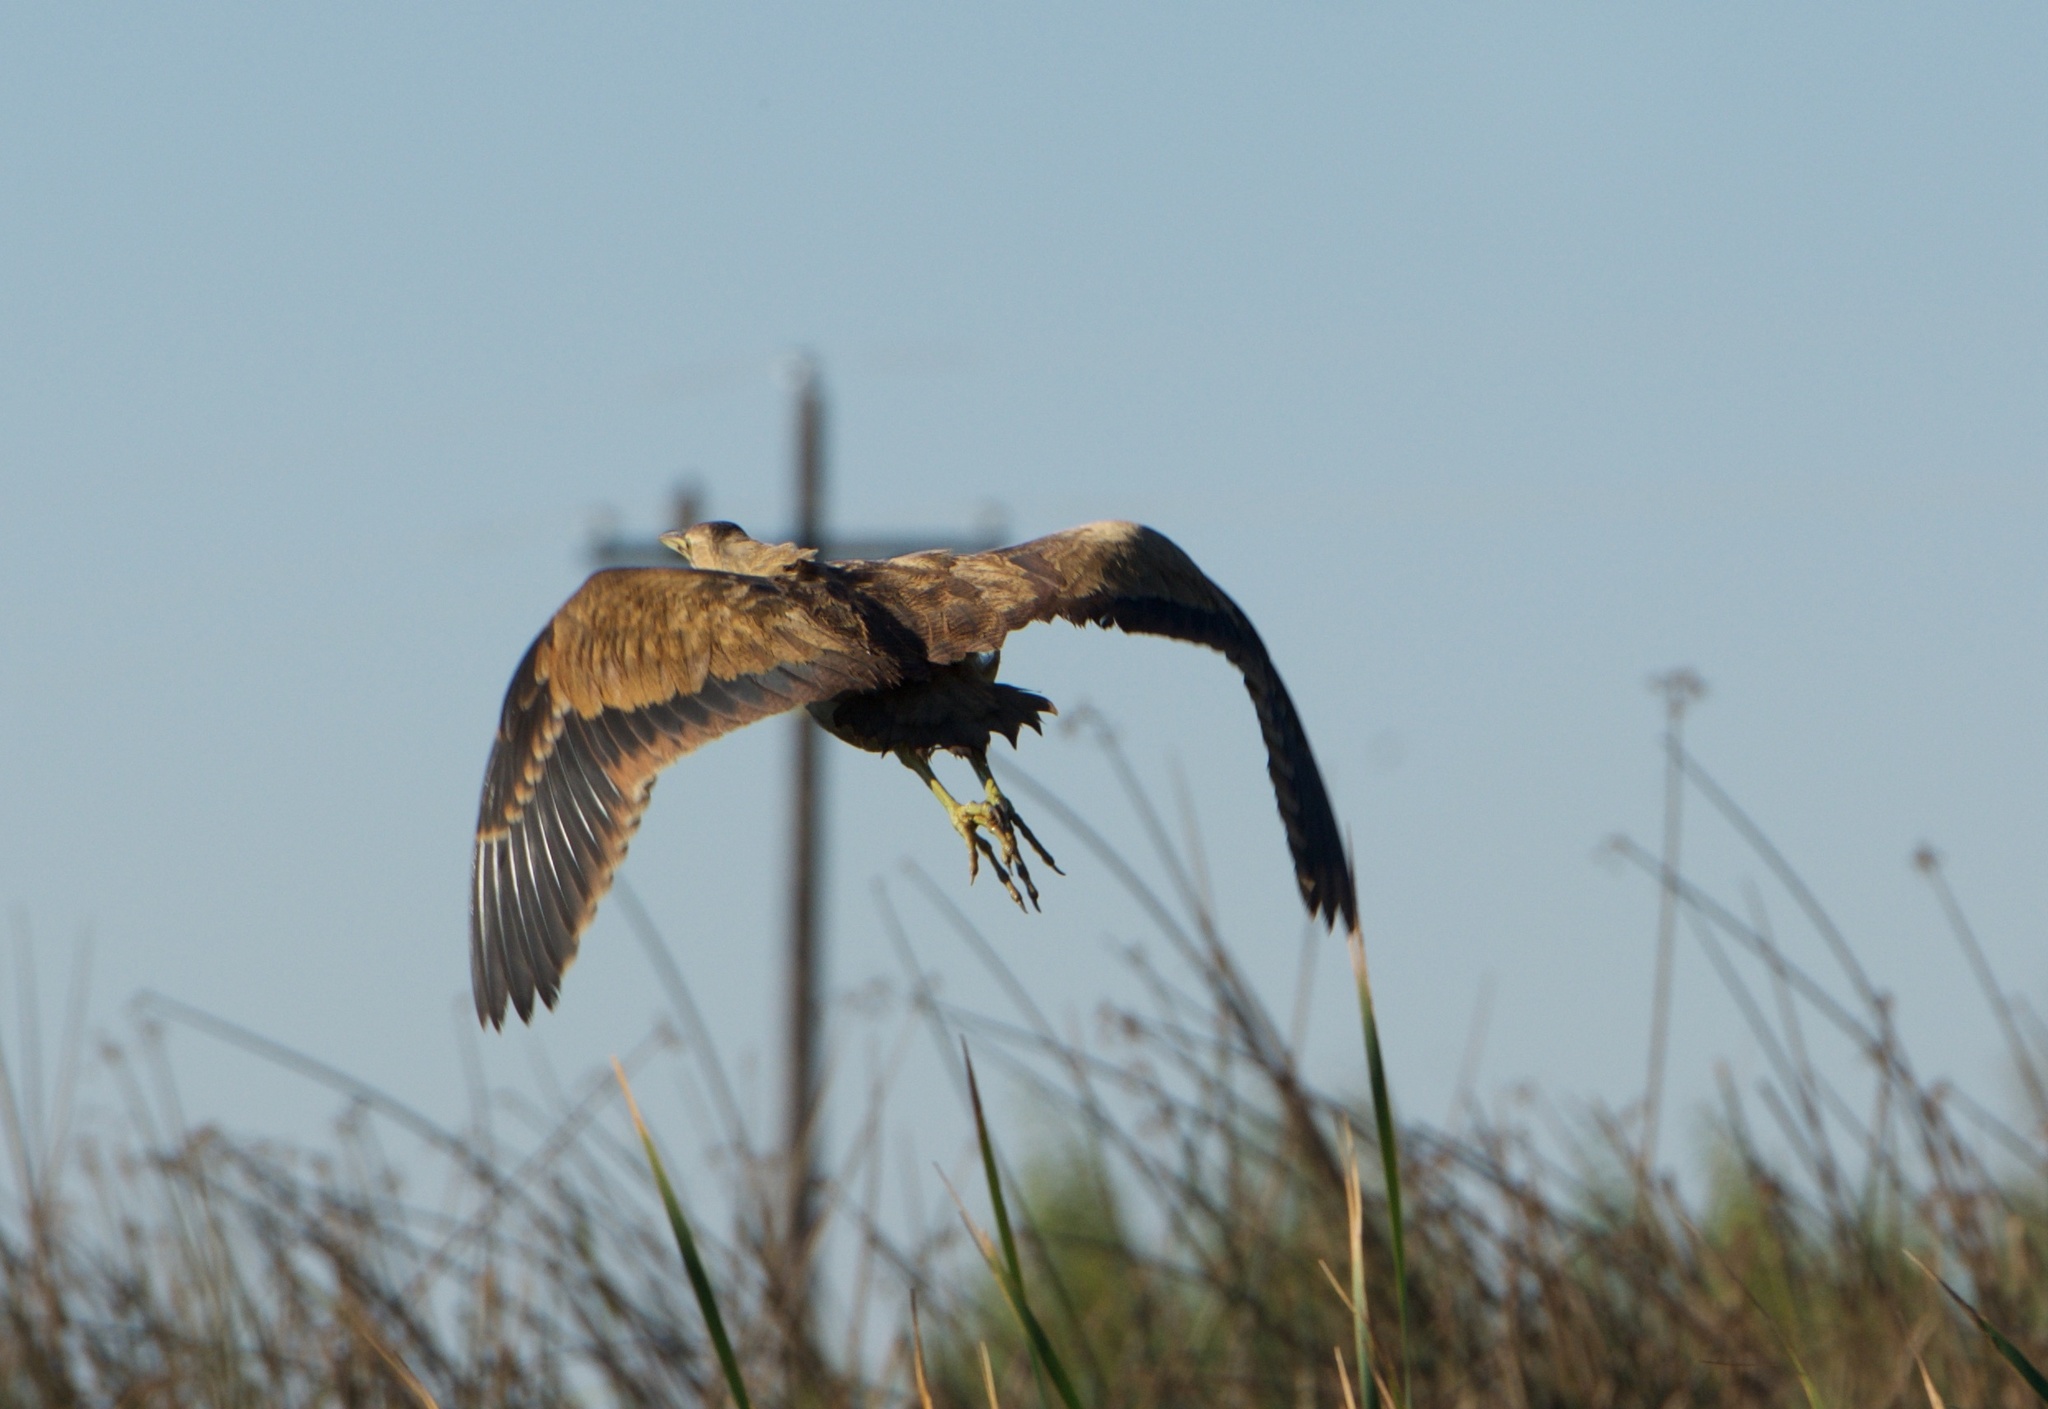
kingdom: Animalia
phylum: Chordata
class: Aves
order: Pelecaniformes
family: Ardeidae
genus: Botaurus
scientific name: Botaurus lentiginosus
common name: American bittern
